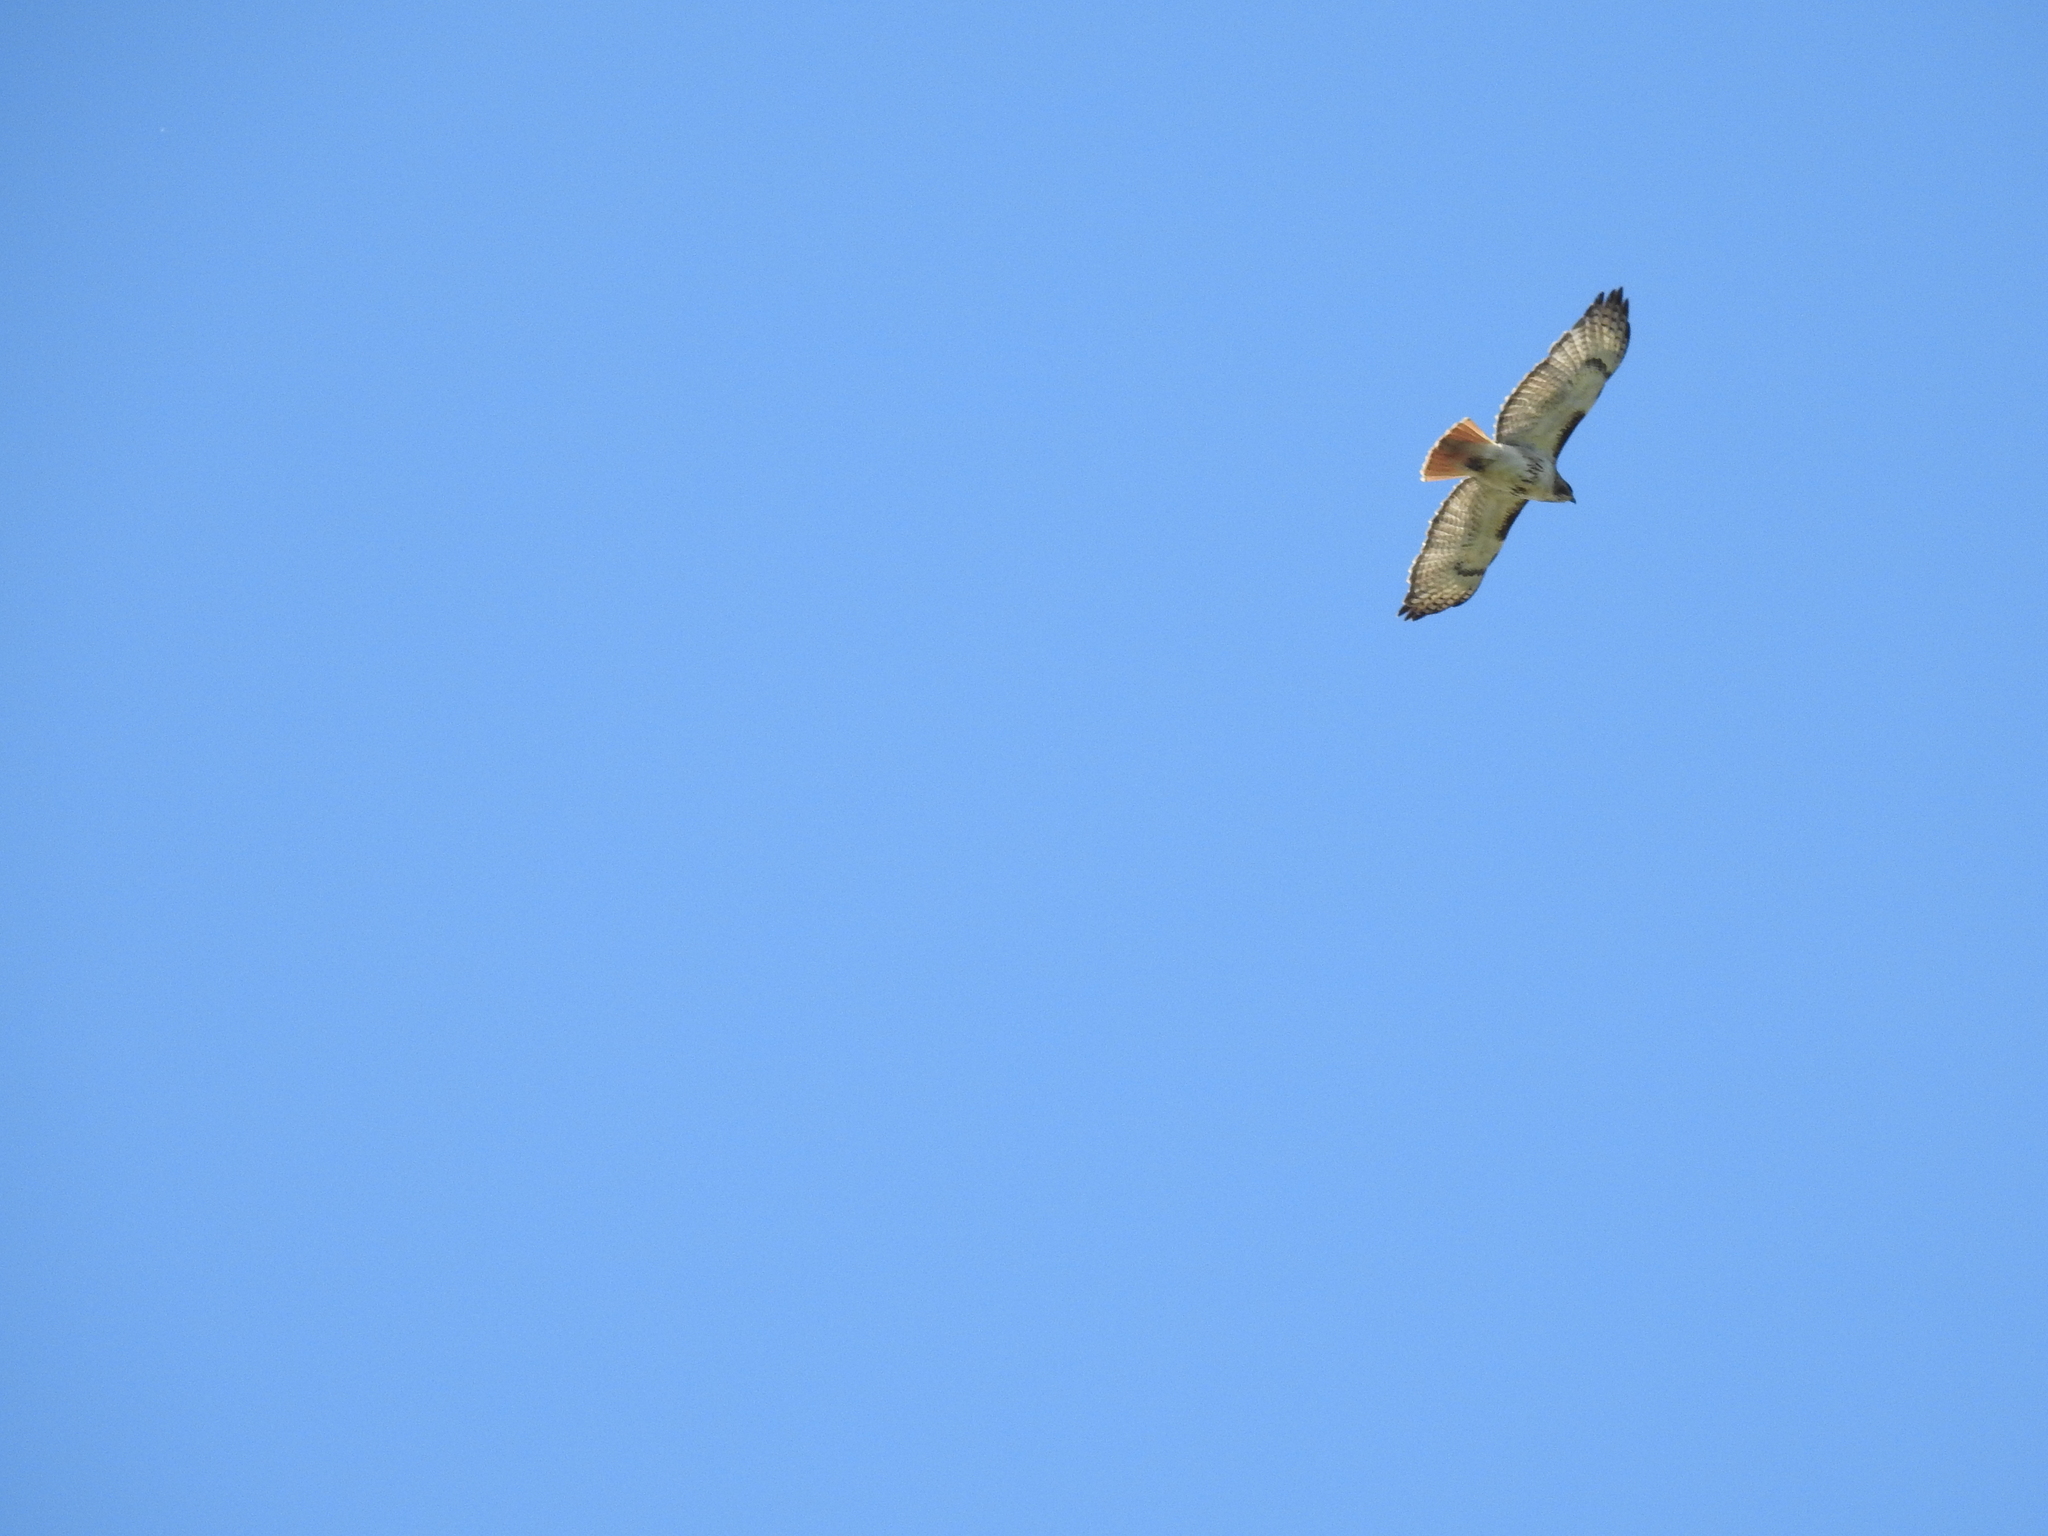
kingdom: Animalia
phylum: Chordata
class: Aves
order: Accipitriformes
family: Accipitridae
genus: Buteo
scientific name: Buteo jamaicensis
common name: Red-tailed hawk
